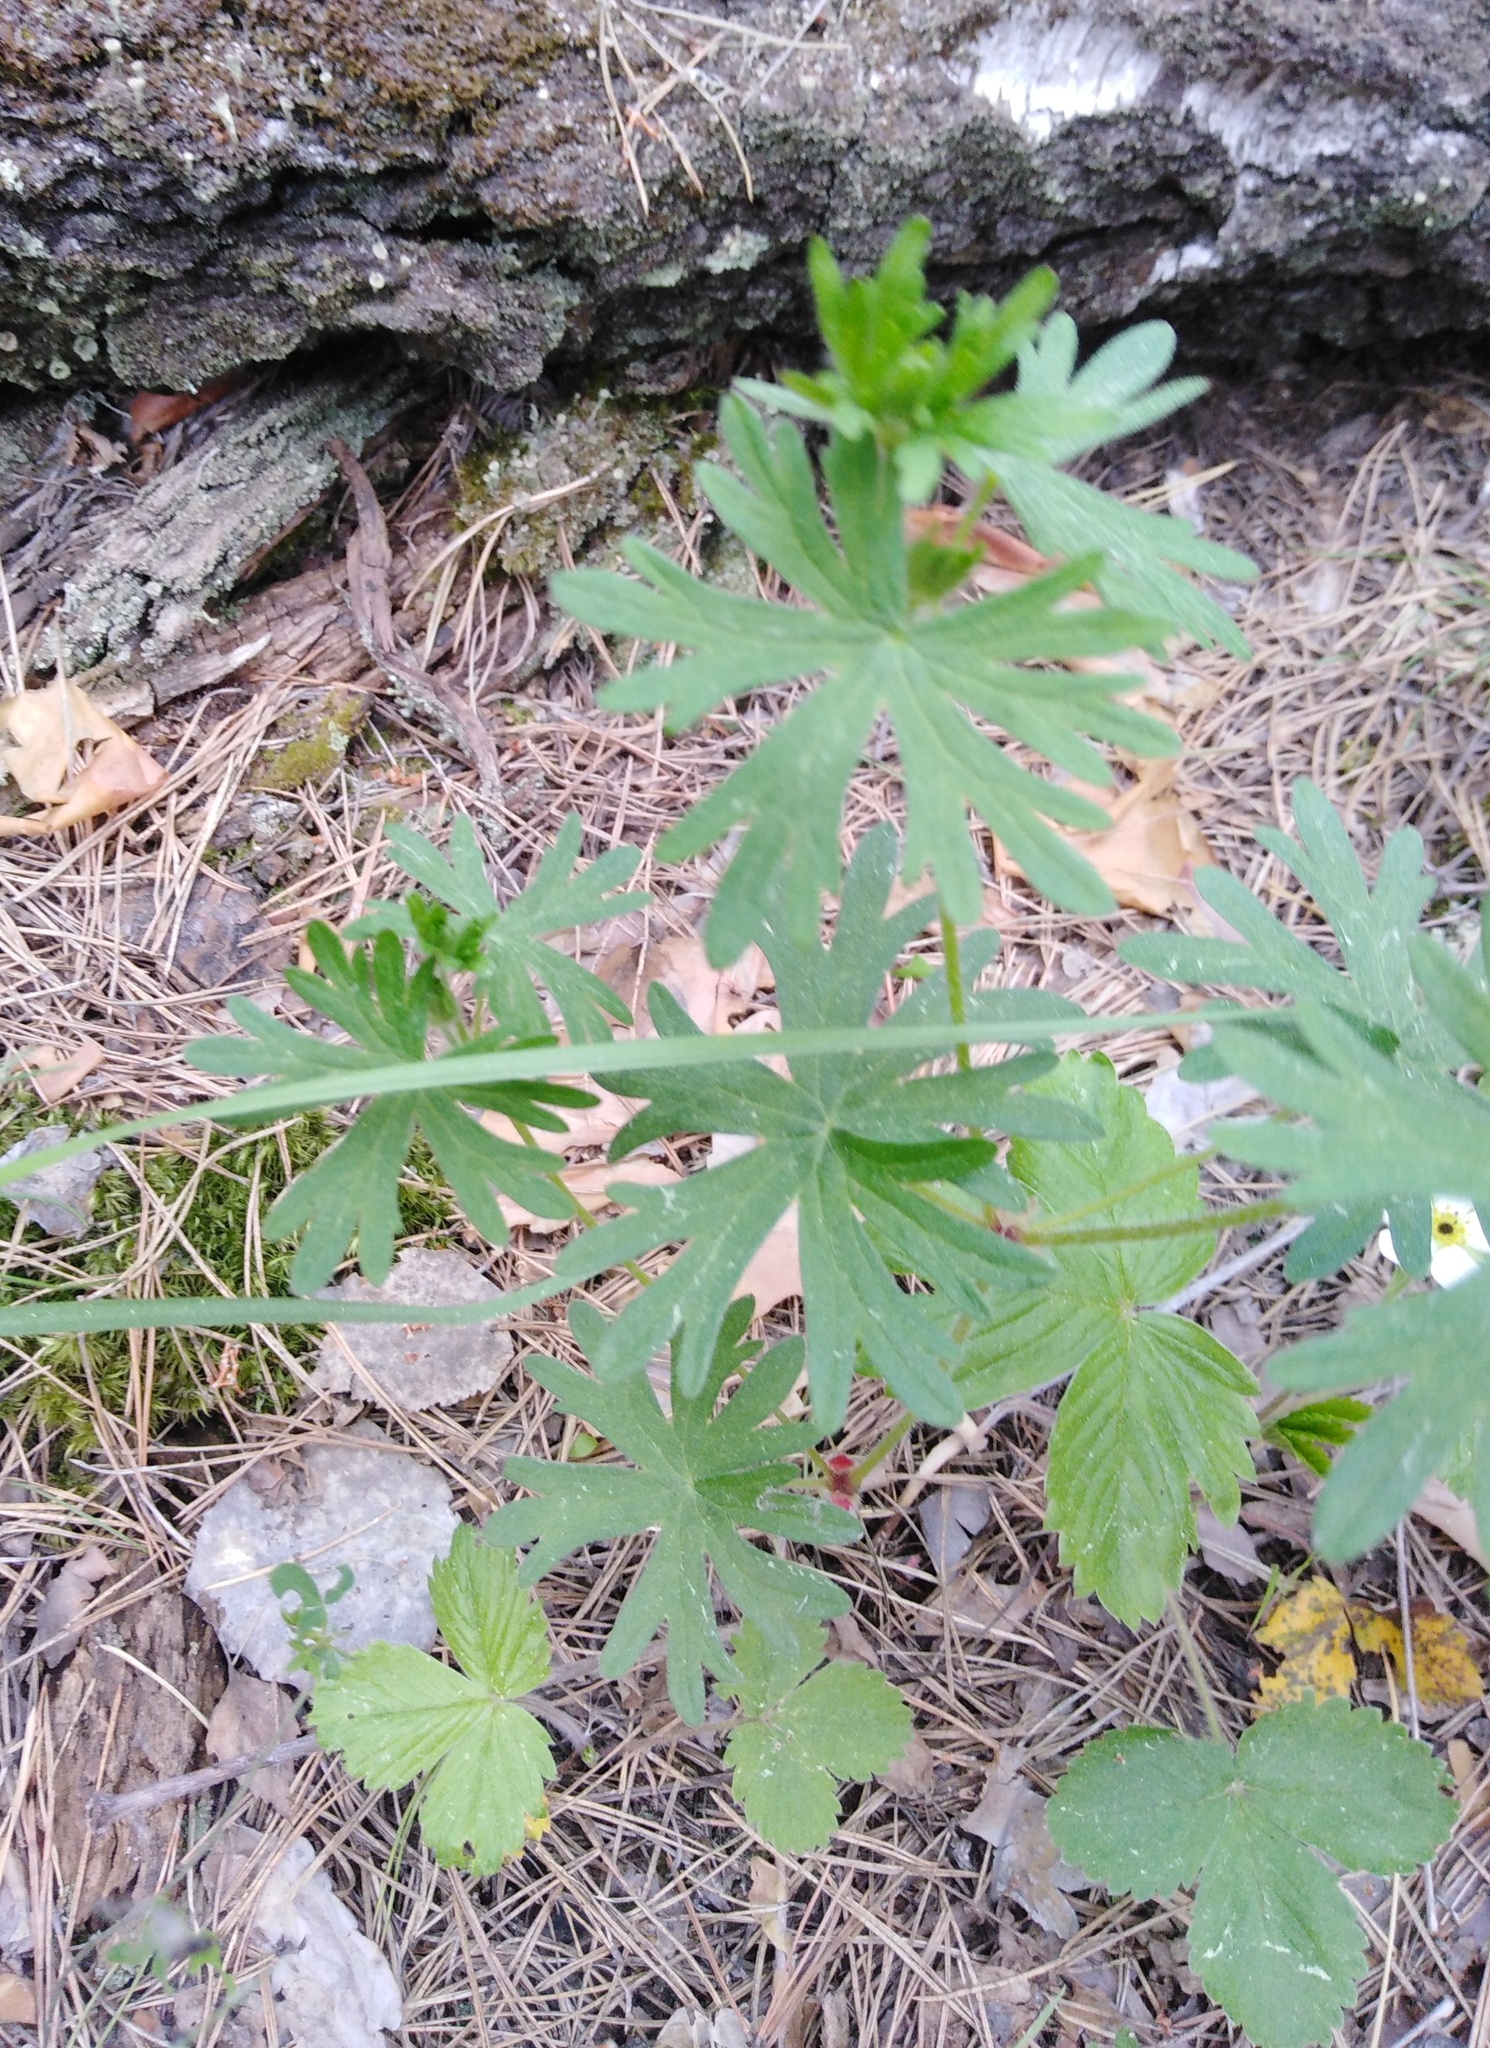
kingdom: Plantae
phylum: Tracheophyta
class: Magnoliopsida
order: Geraniales
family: Geraniaceae
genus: Geranium
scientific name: Geranium sanguineum
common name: Bloody crane's-bill
